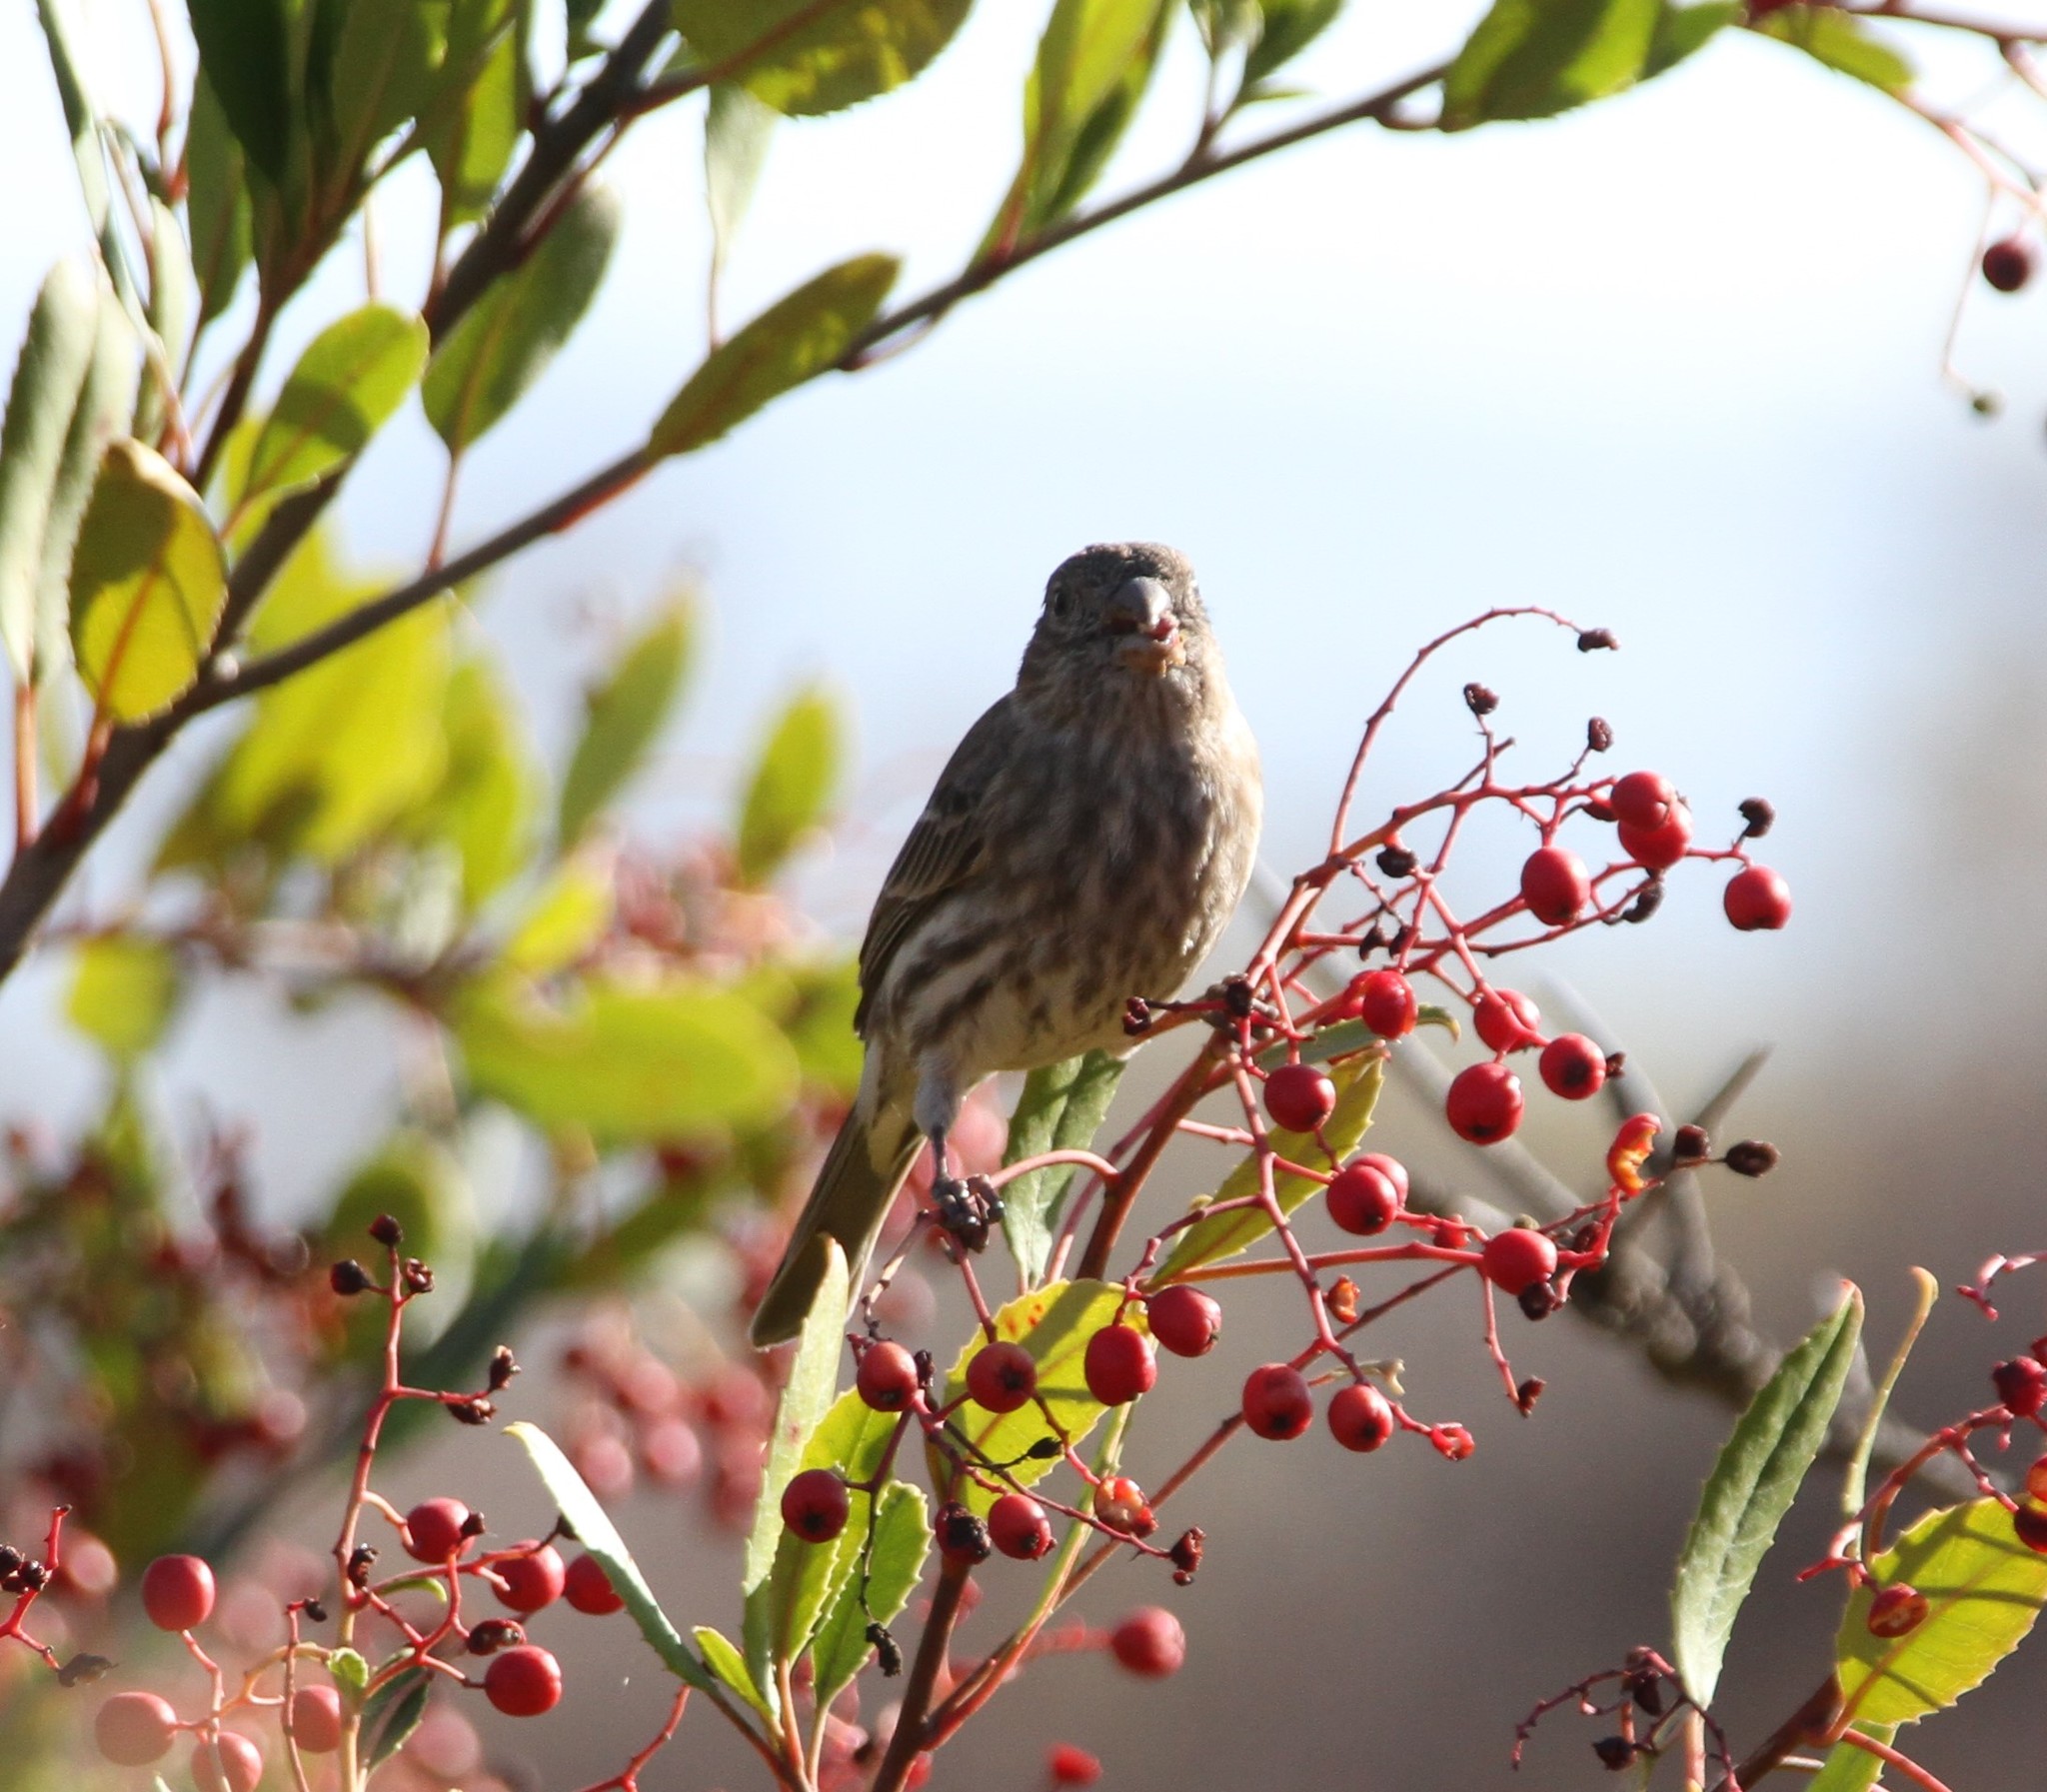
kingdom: Animalia
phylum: Chordata
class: Aves
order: Passeriformes
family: Fringillidae
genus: Haemorhous
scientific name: Haemorhous mexicanus
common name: House finch
